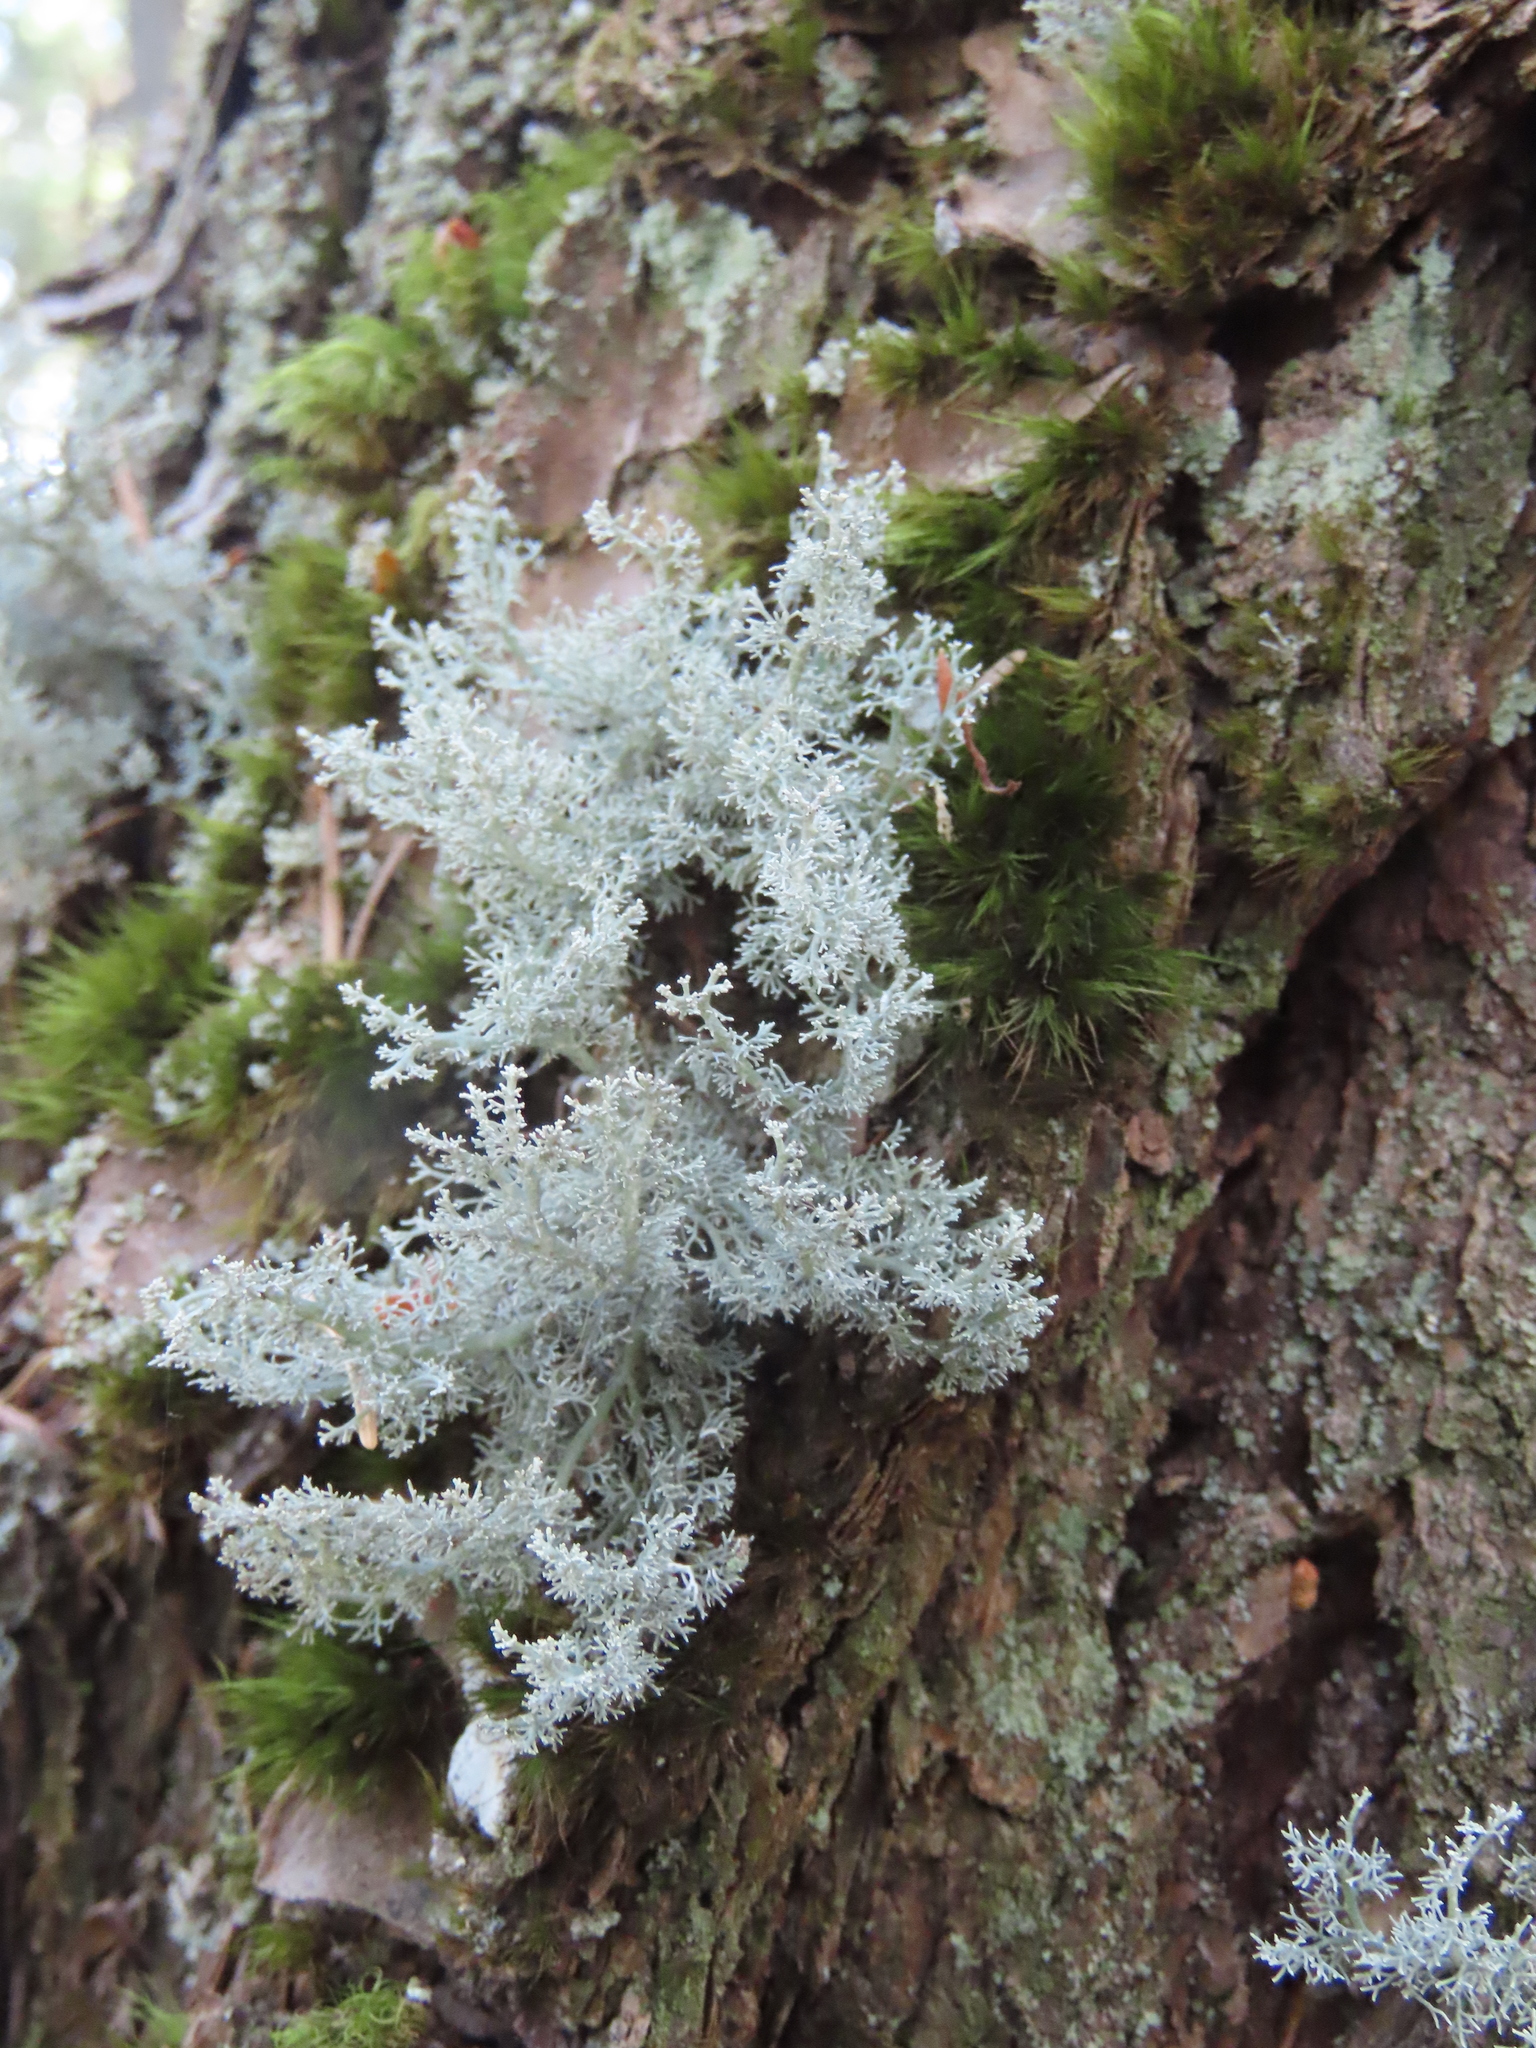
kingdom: Fungi
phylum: Ascomycota
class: Lecanoromycetes
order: Lecanorales
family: Sphaerophoraceae
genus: Sphaerophorus
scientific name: Sphaerophorus globosus
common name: Globe ball lichen
